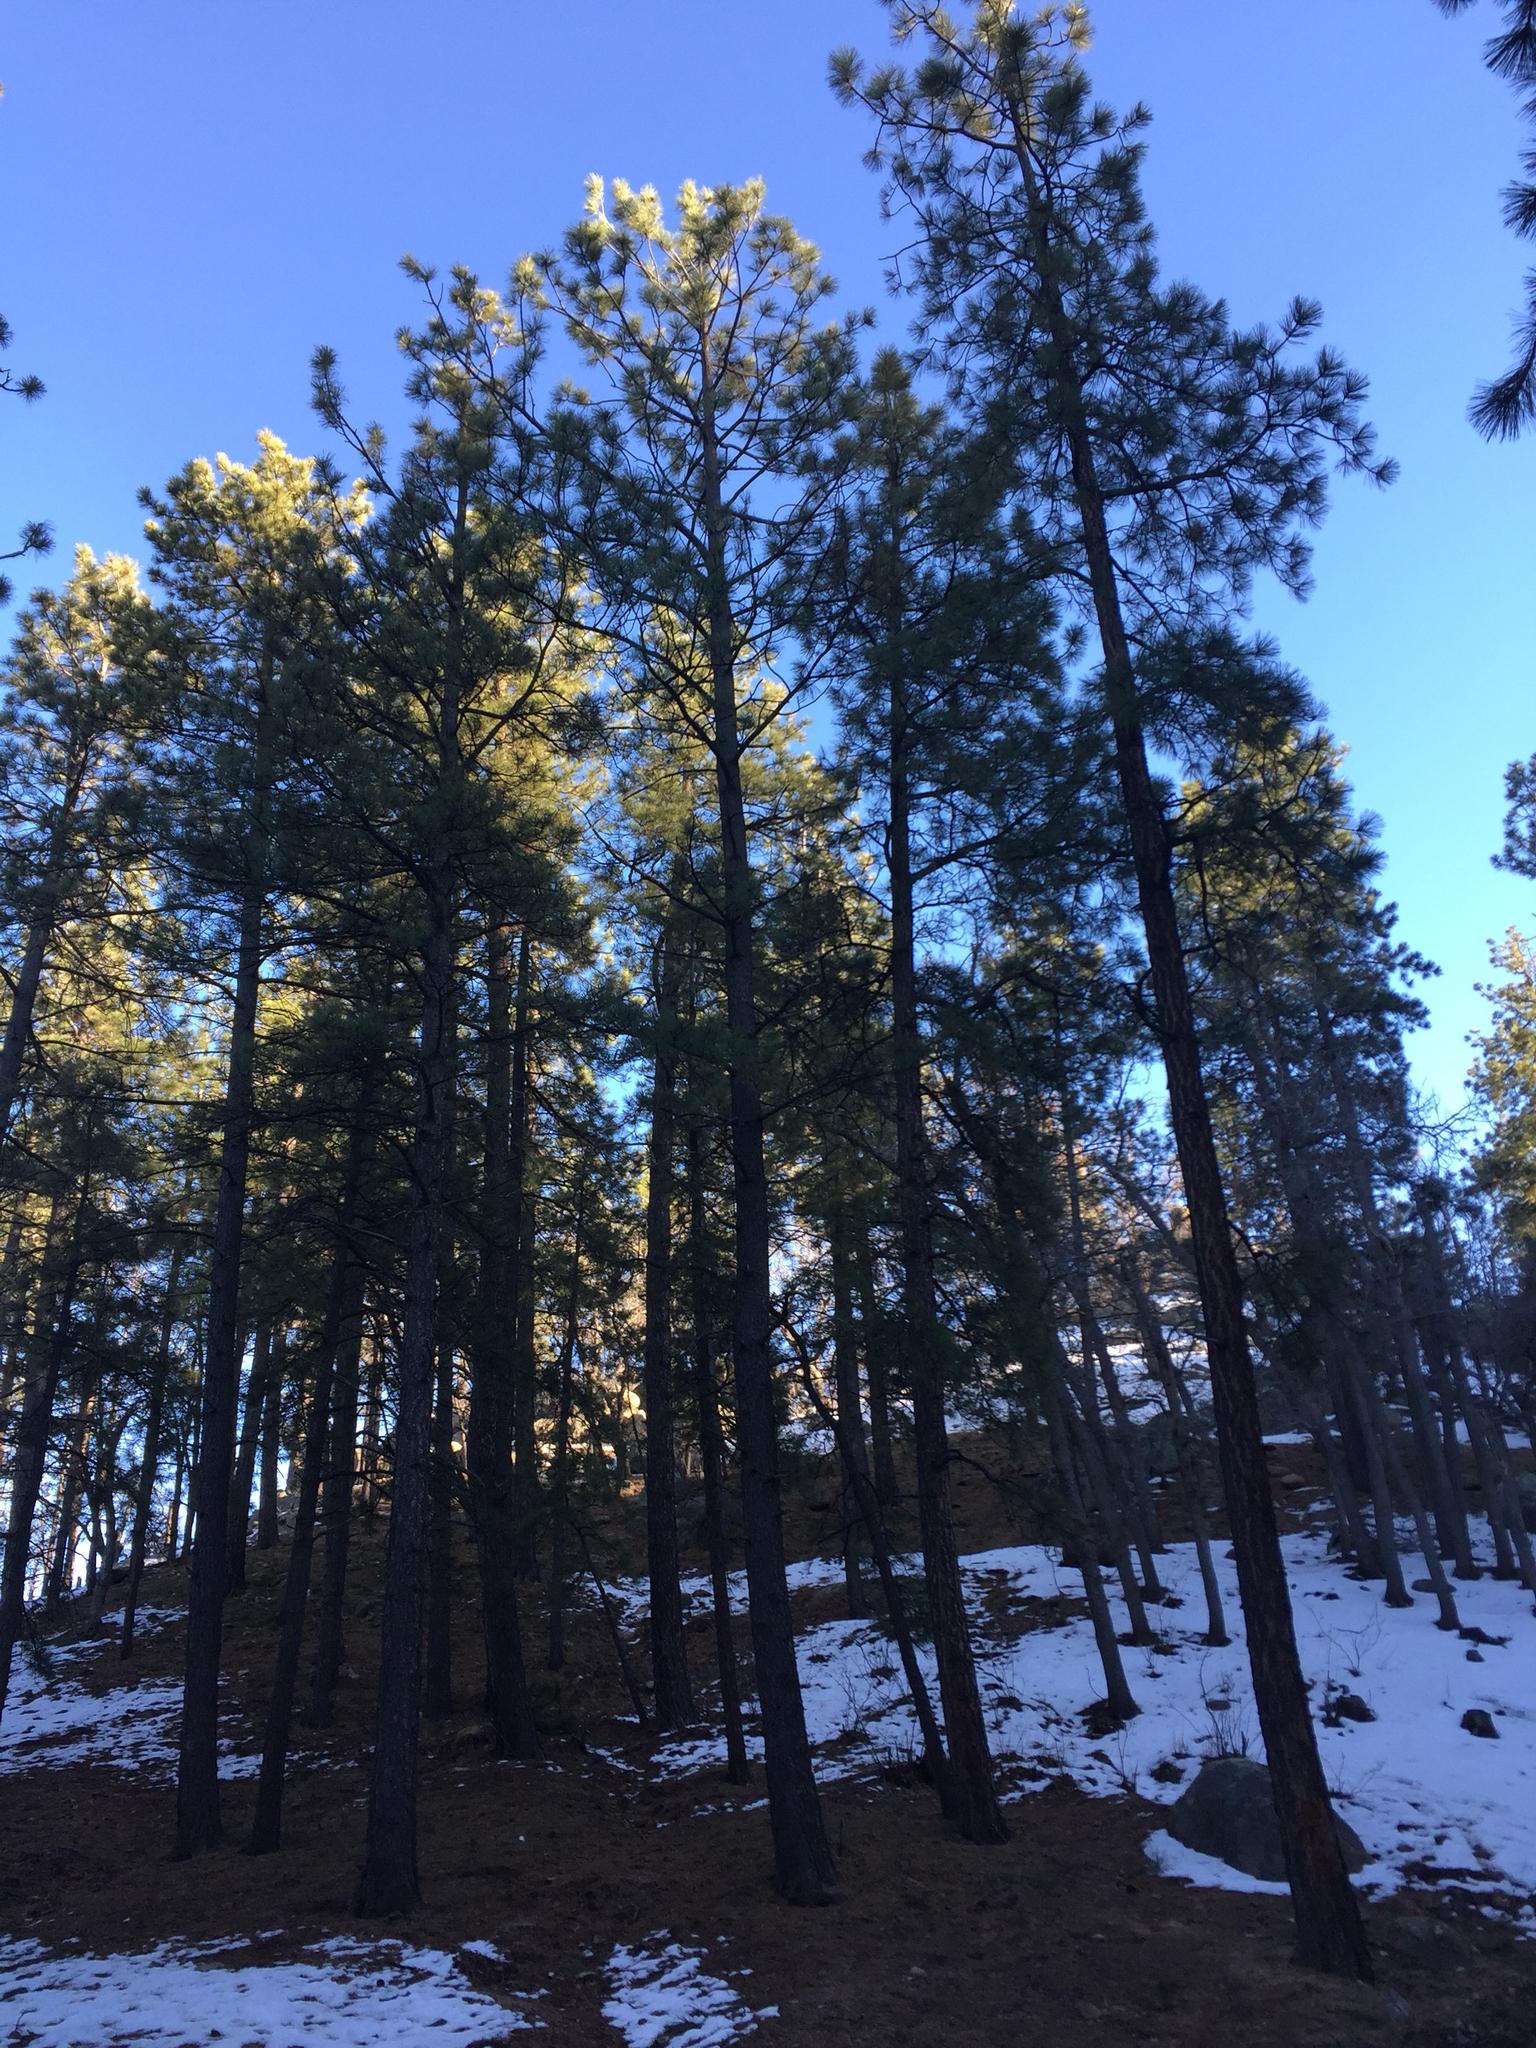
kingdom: Plantae
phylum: Tracheophyta
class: Pinopsida
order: Pinales
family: Pinaceae
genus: Pinus
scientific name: Pinus ponderosa
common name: Western yellow-pine
